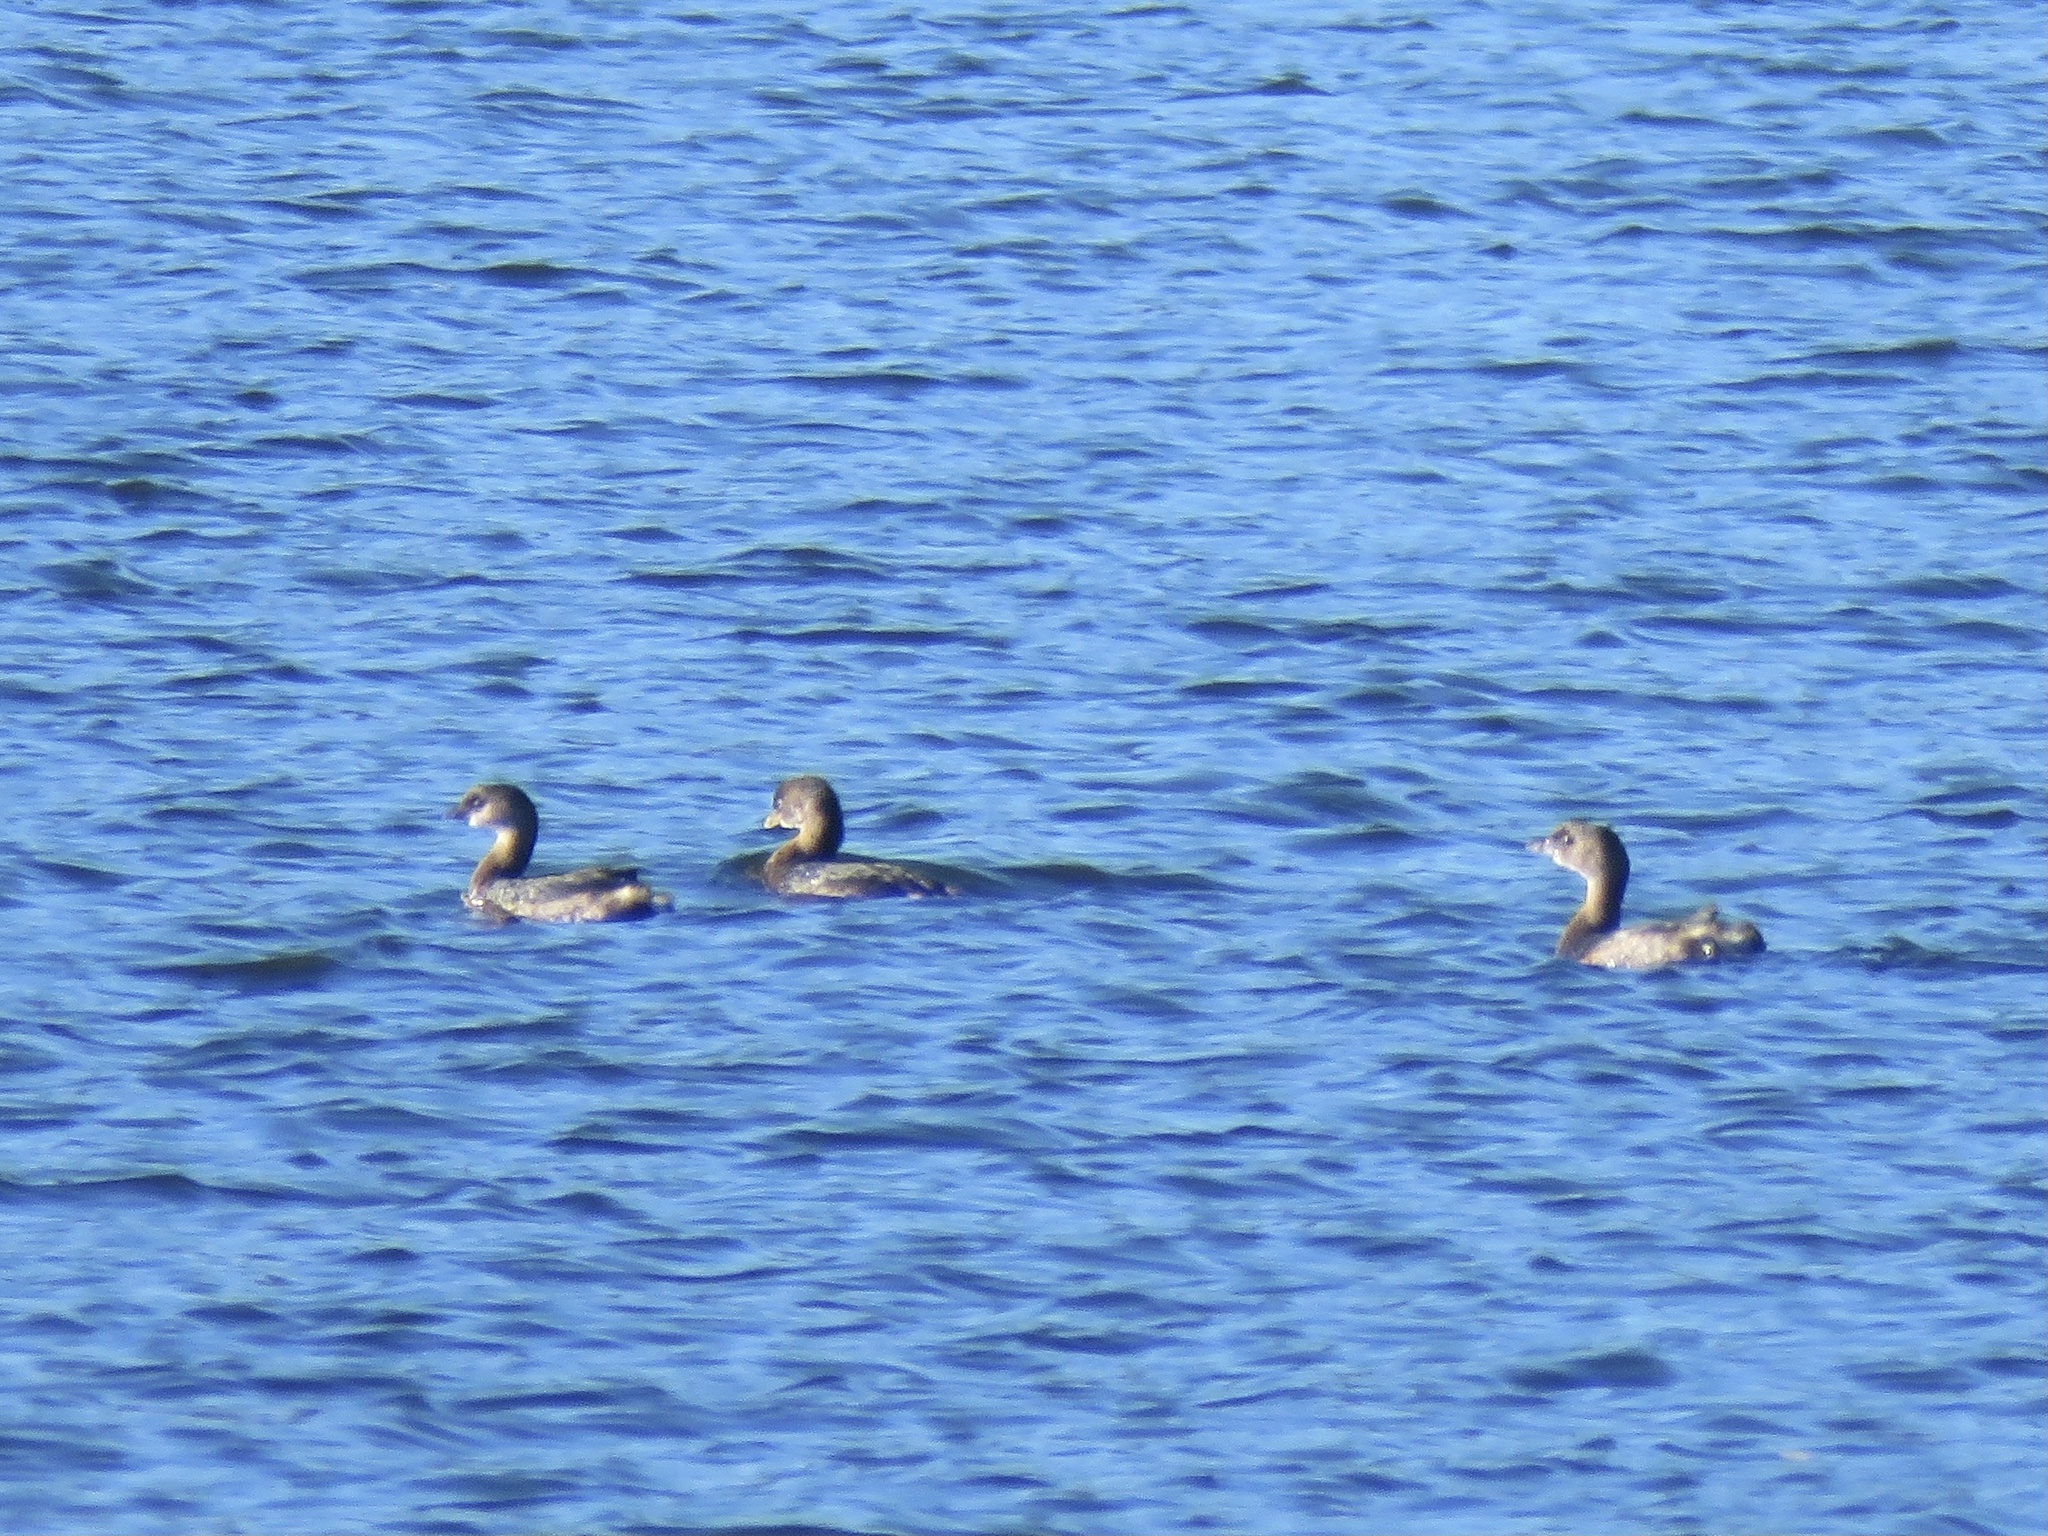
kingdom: Animalia
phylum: Chordata
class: Aves
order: Podicipediformes
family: Podicipedidae
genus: Podilymbus
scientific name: Podilymbus podiceps
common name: Pied-billed grebe
